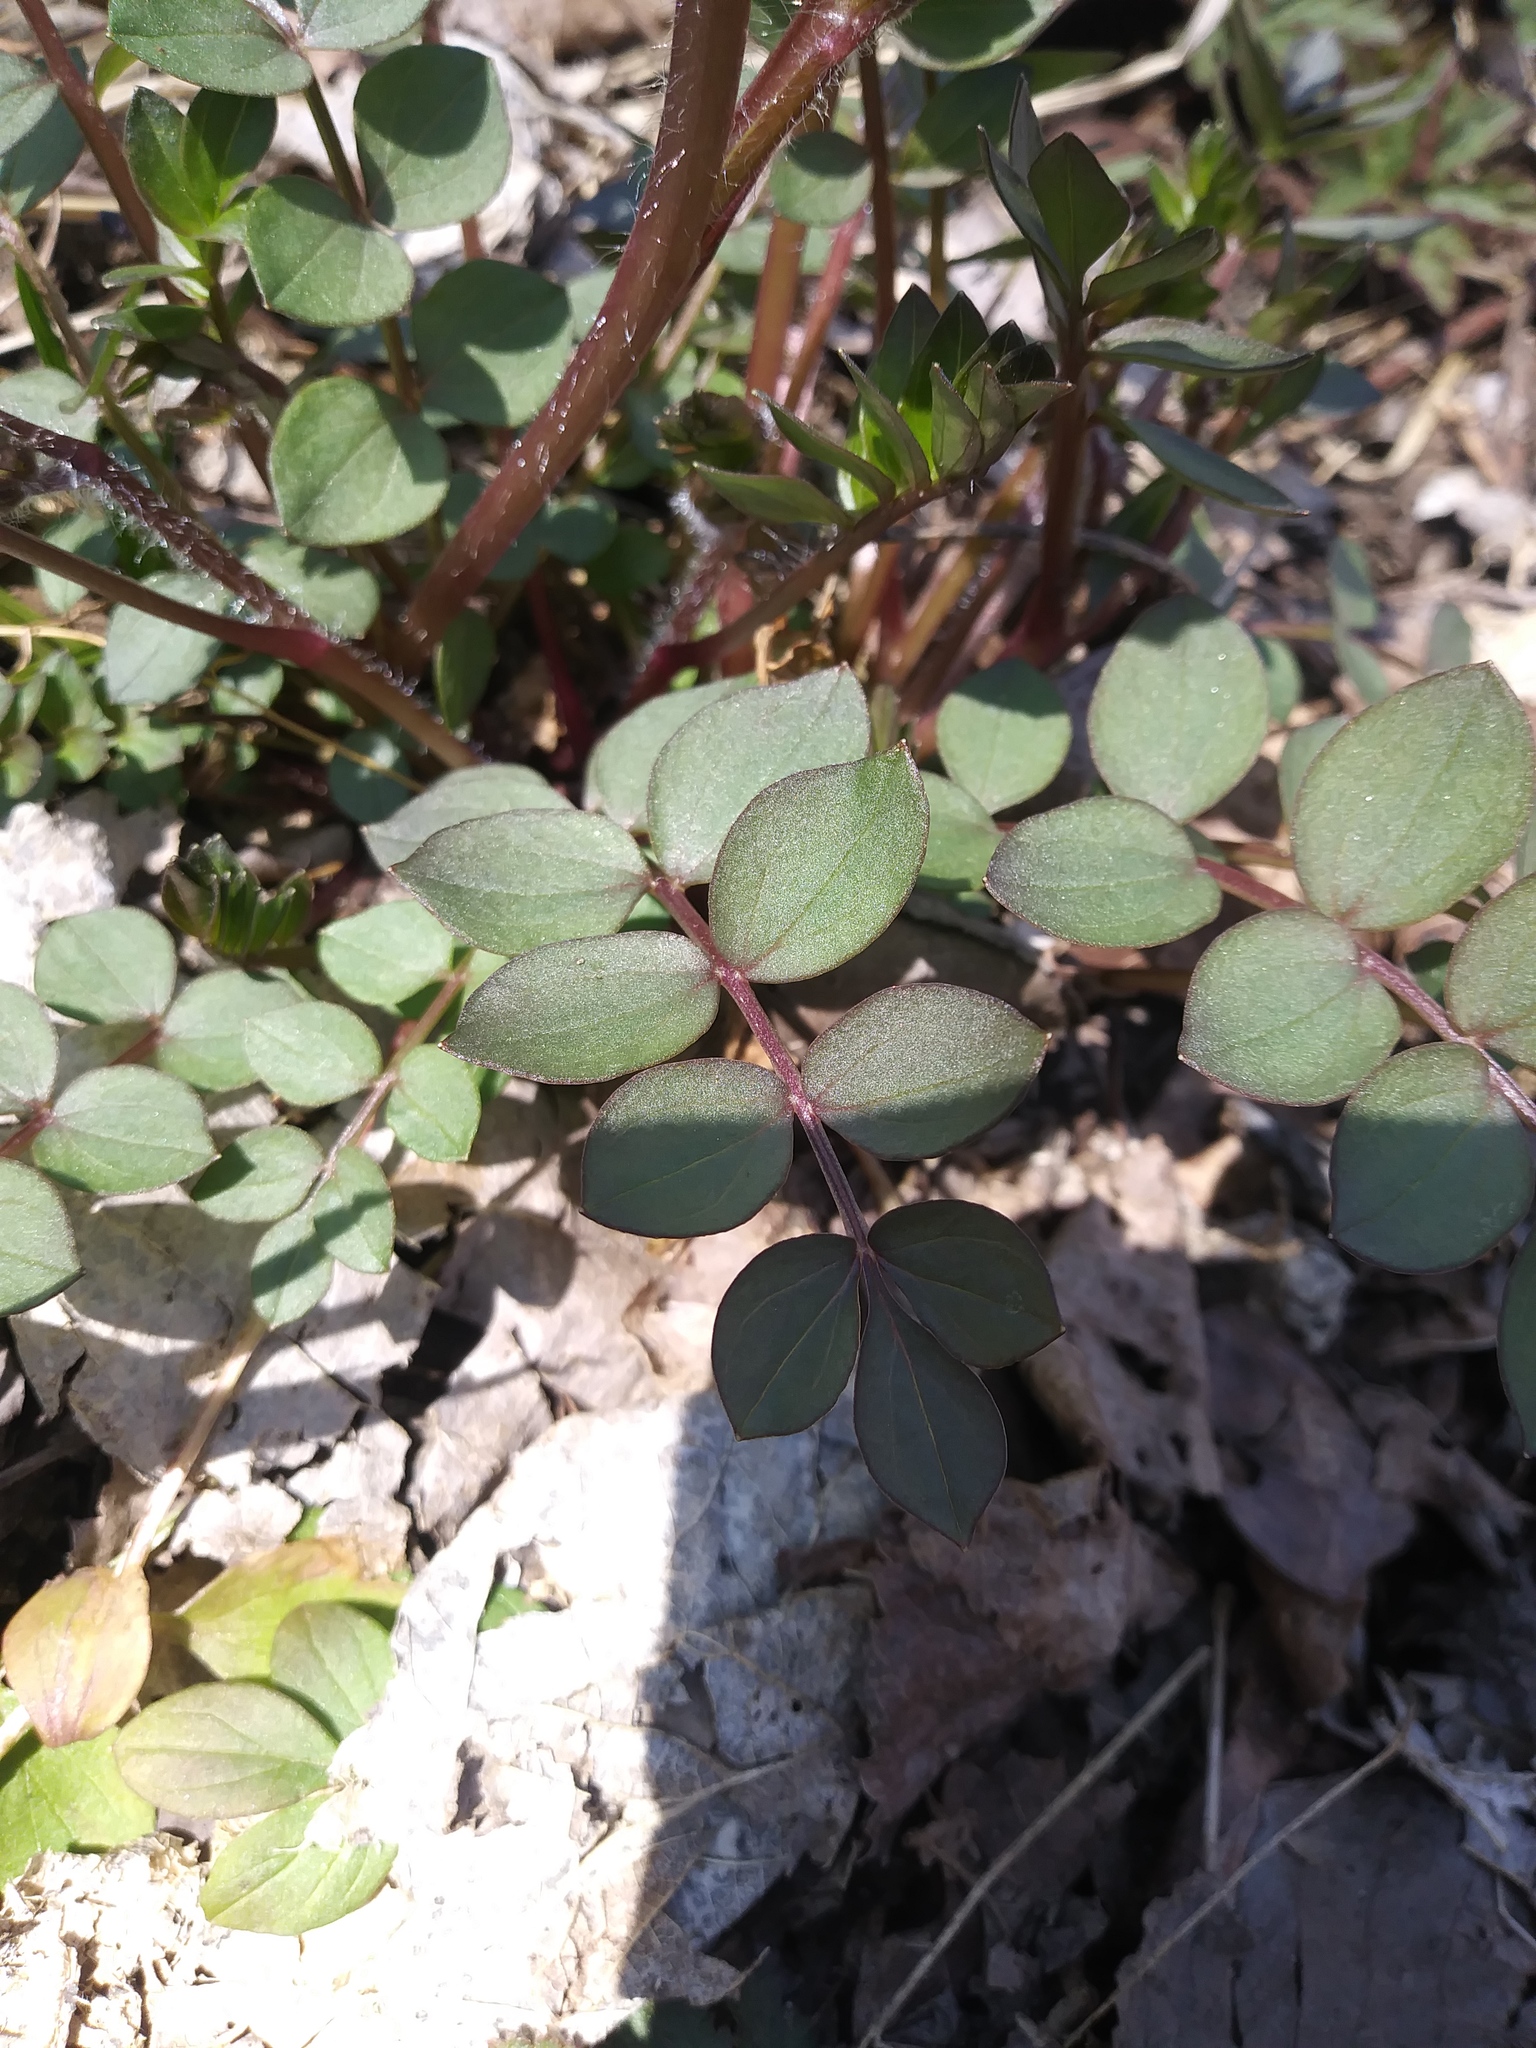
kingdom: Plantae
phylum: Tracheophyta
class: Magnoliopsida
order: Ericales
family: Polemoniaceae
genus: Polemonium
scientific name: Polemonium reptans
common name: Creeping jacob's-ladder
